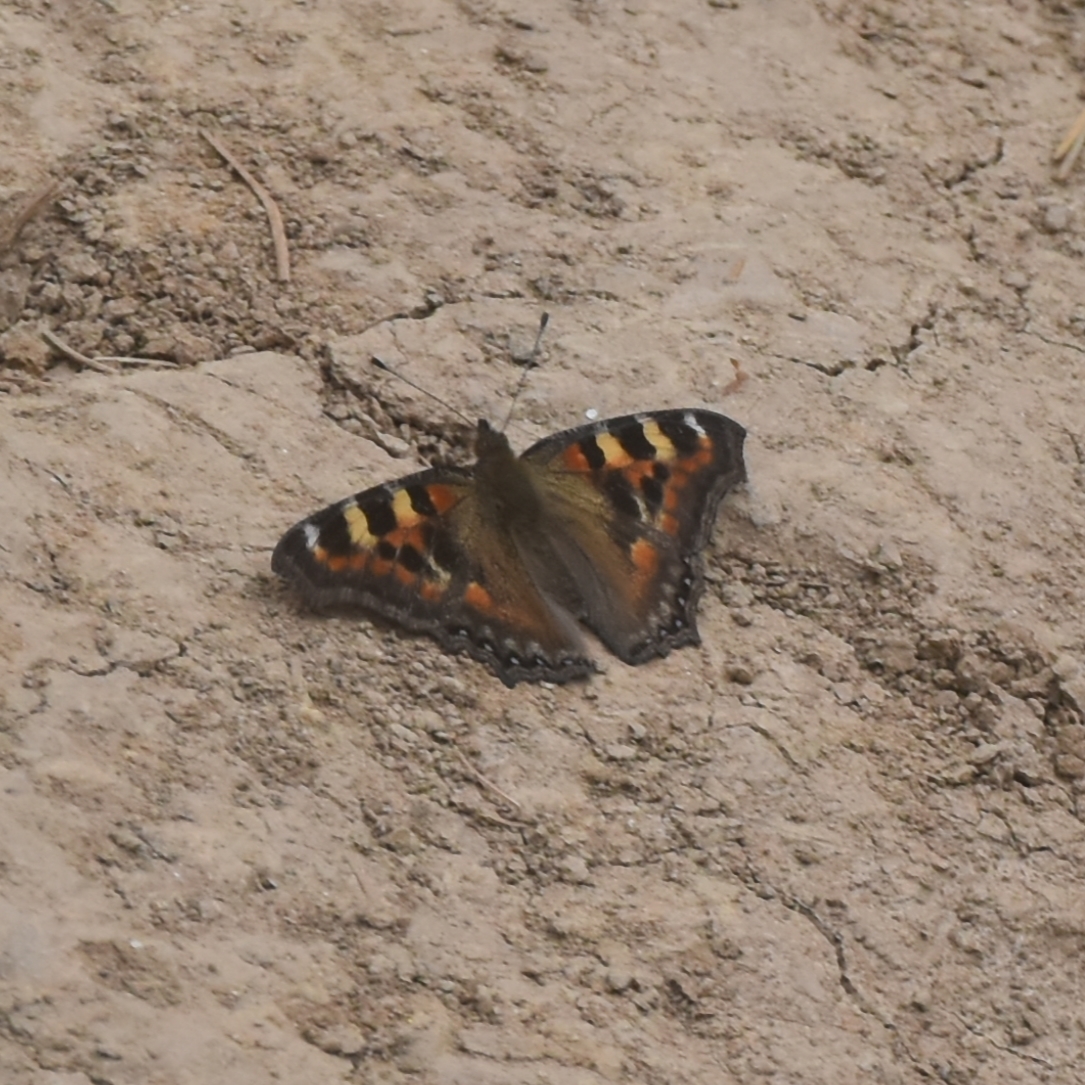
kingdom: Animalia
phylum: Arthropoda
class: Insecta
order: Lepidoptera
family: Nymphalidae
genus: Aglais
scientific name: Aglais caschmirensis
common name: Indian tortoiseshell
